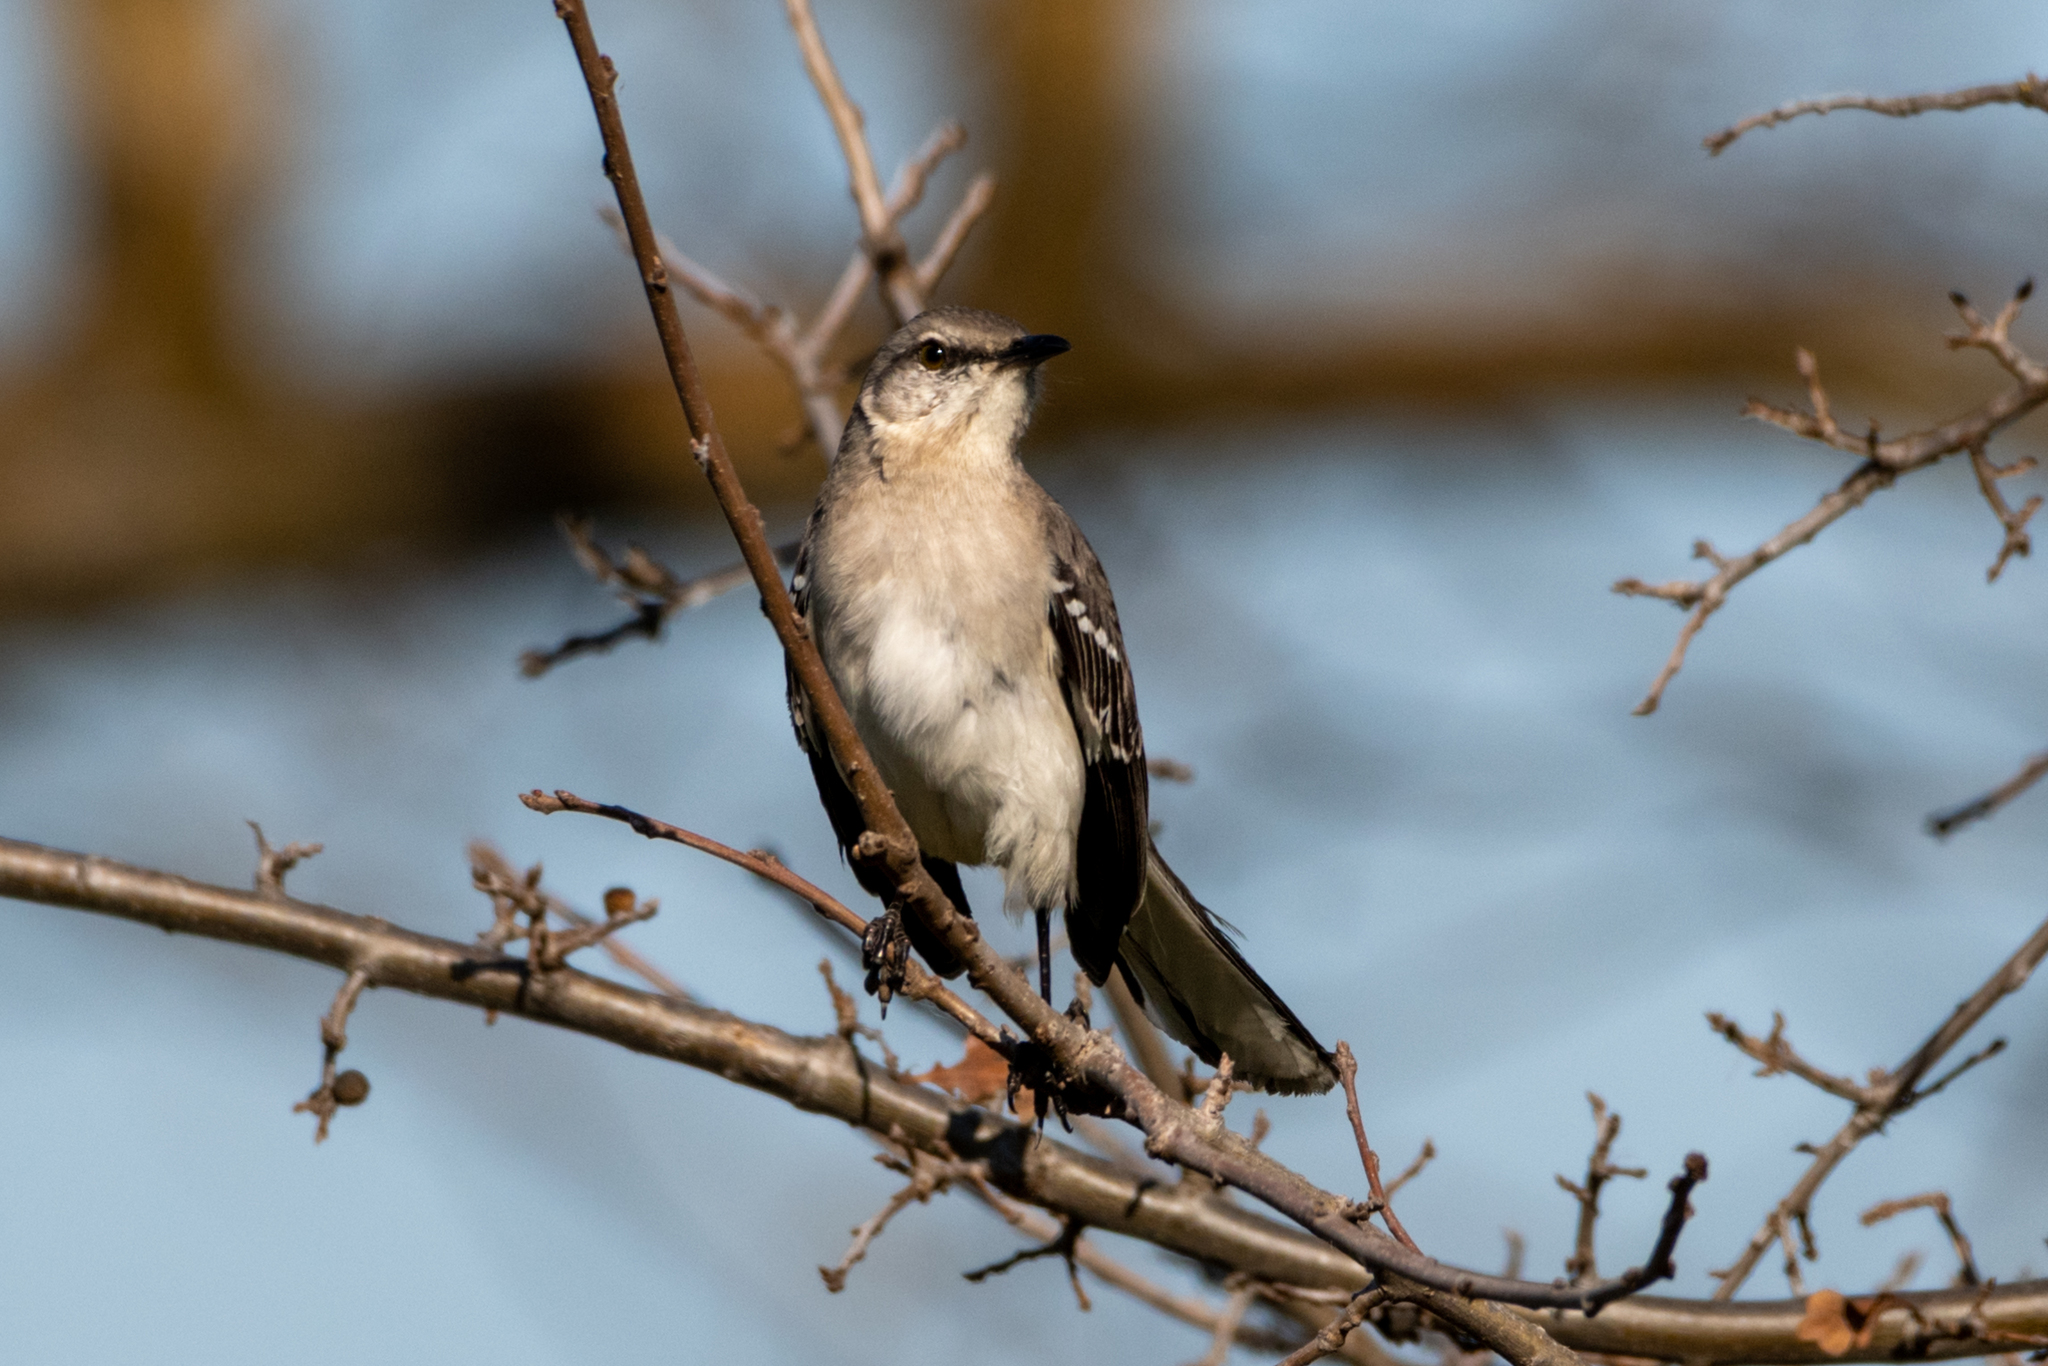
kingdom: Animalia
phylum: Chordata
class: Aves
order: Passeriformes
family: Mimidae
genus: Mimus
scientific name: Mimus polyglottos
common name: Northern mockingbird
